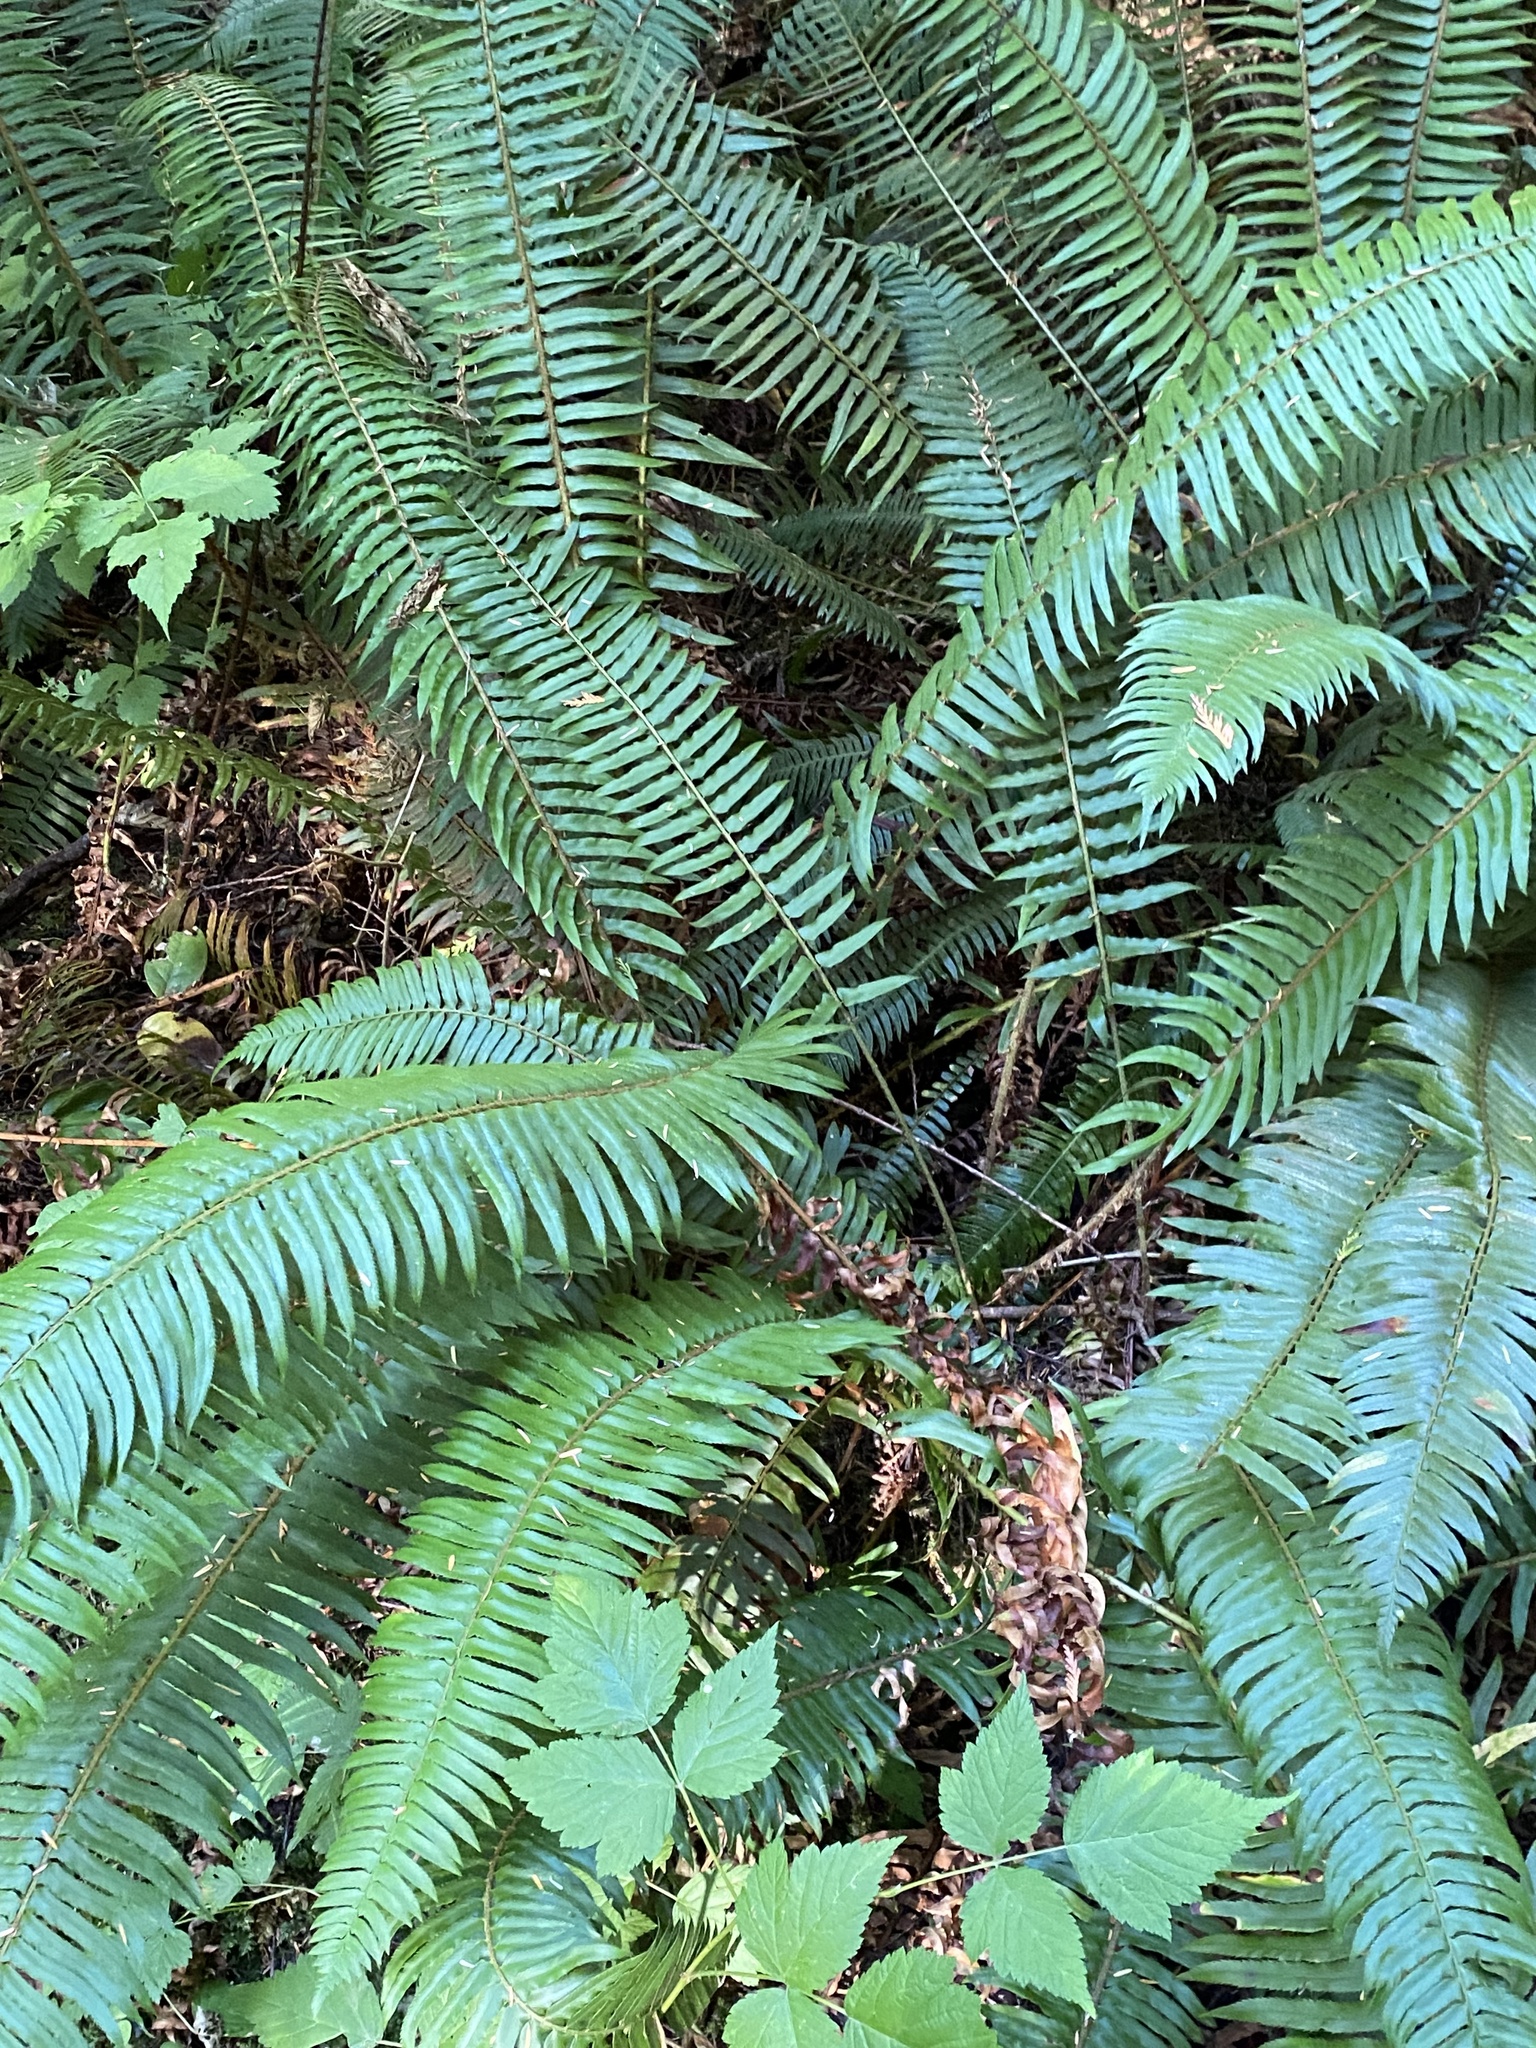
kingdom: Plantae
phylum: Tracheophyta
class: Polypodiopsida
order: Polypodiales
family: Dryopteridaceae
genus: Polystichum
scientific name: Polystichum munitum
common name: Western sword-fern
